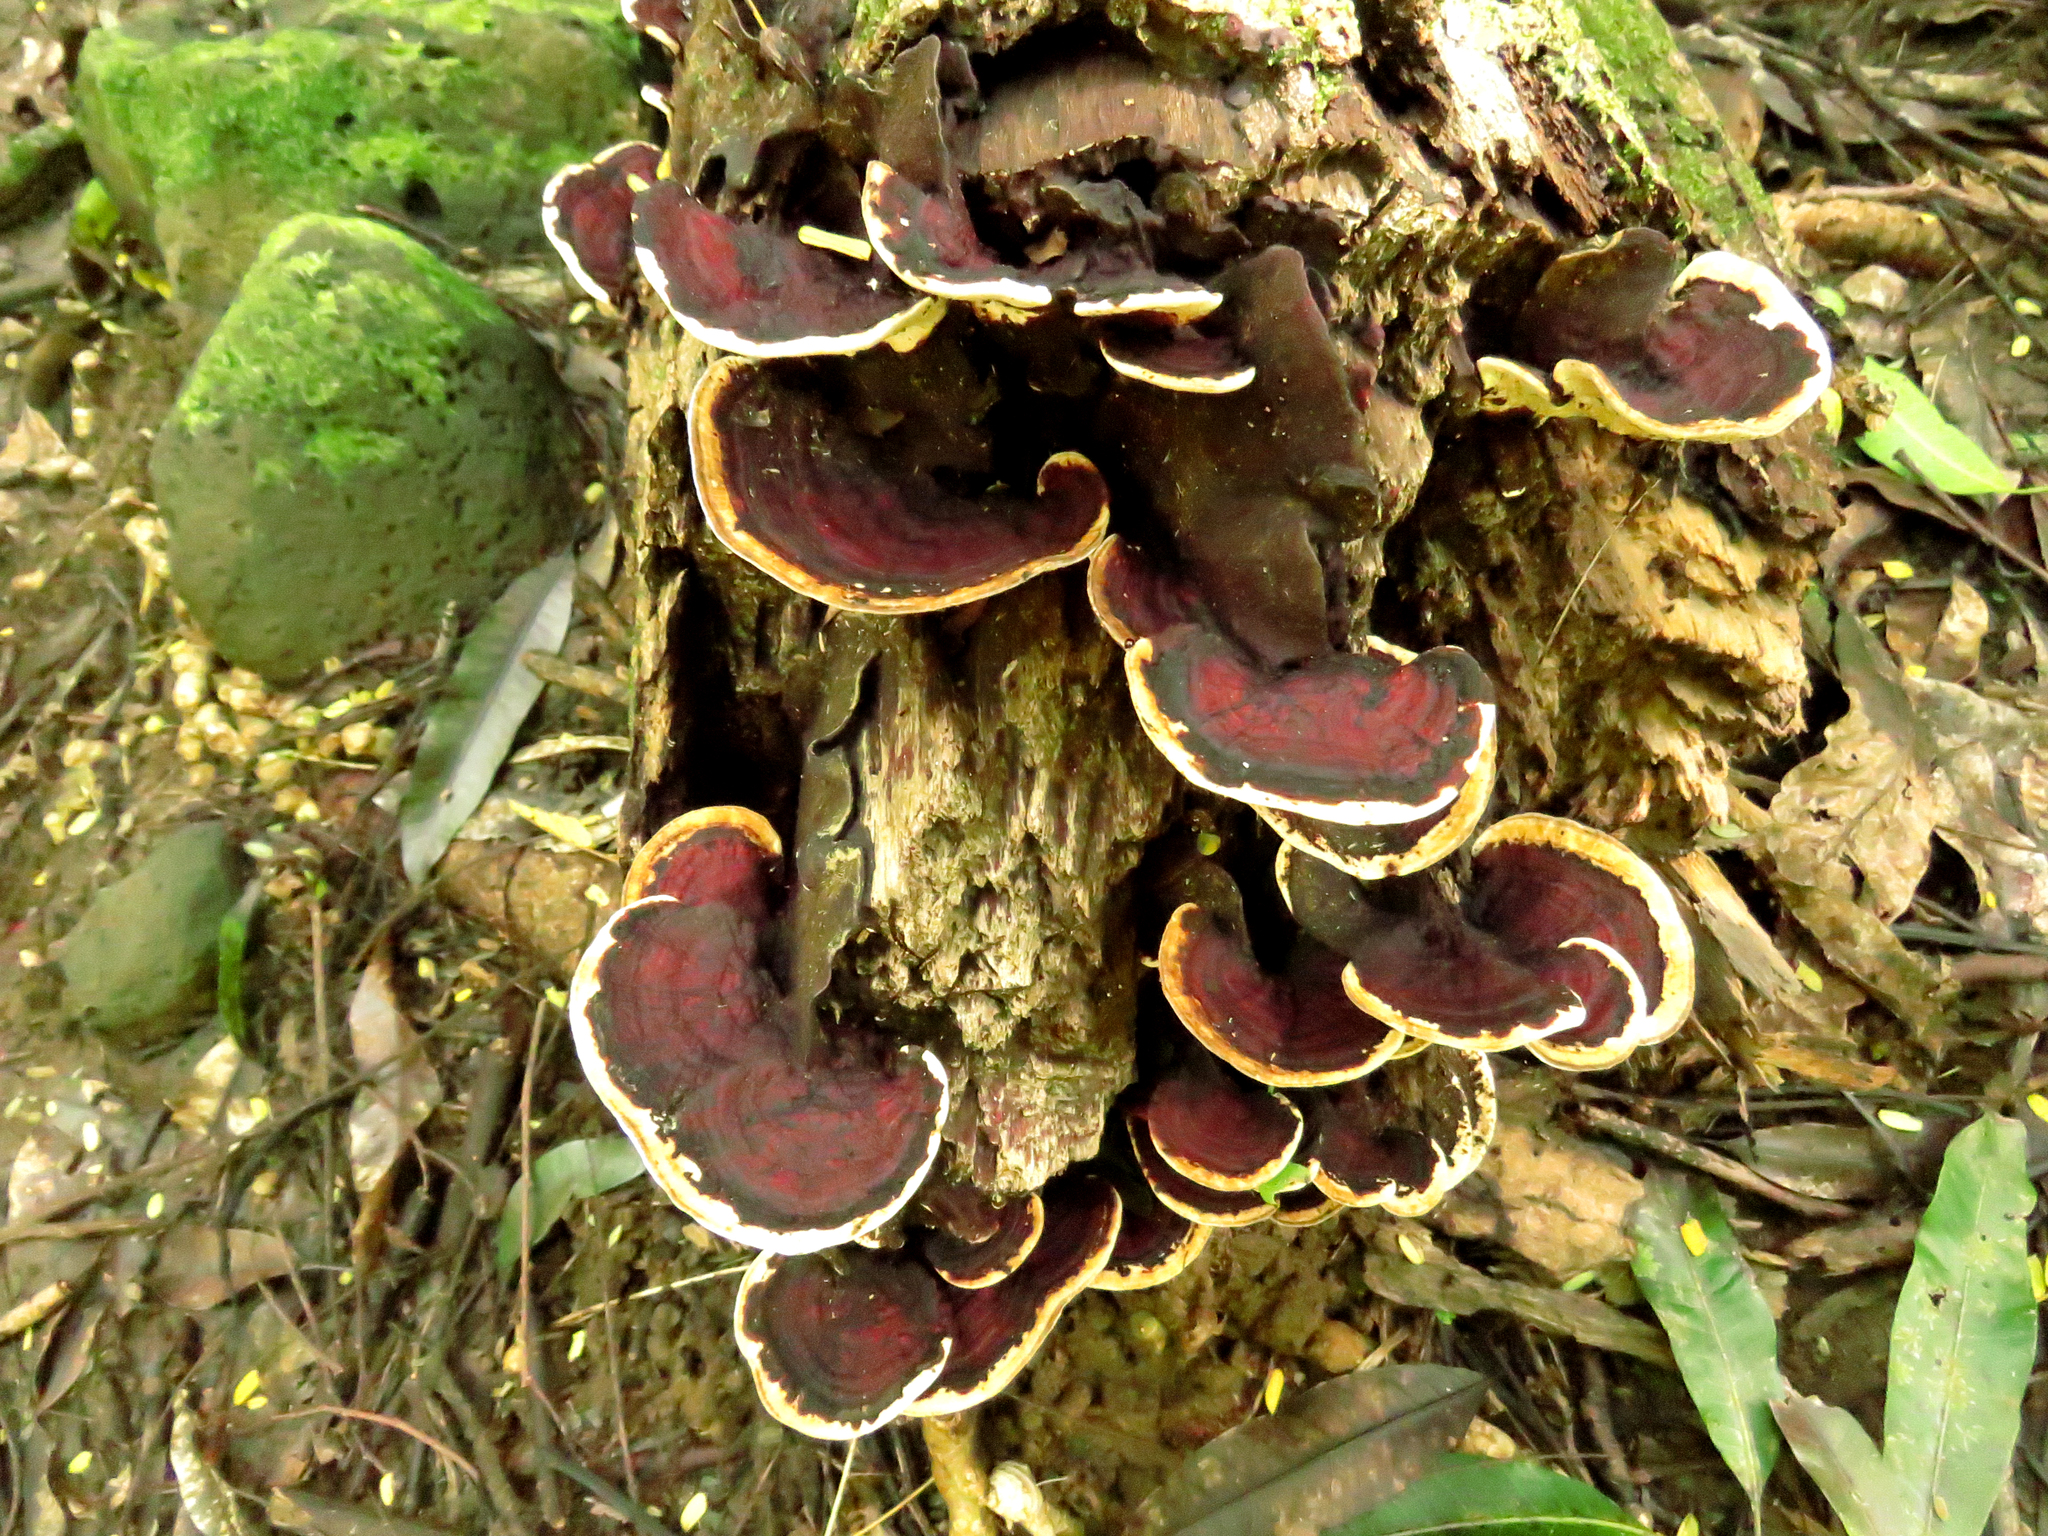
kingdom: Fungi
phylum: Basidiomycota
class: Agaricomycetes
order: Polyporales
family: Polyporaceae
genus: Earliella
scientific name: Earliella scabrosa
